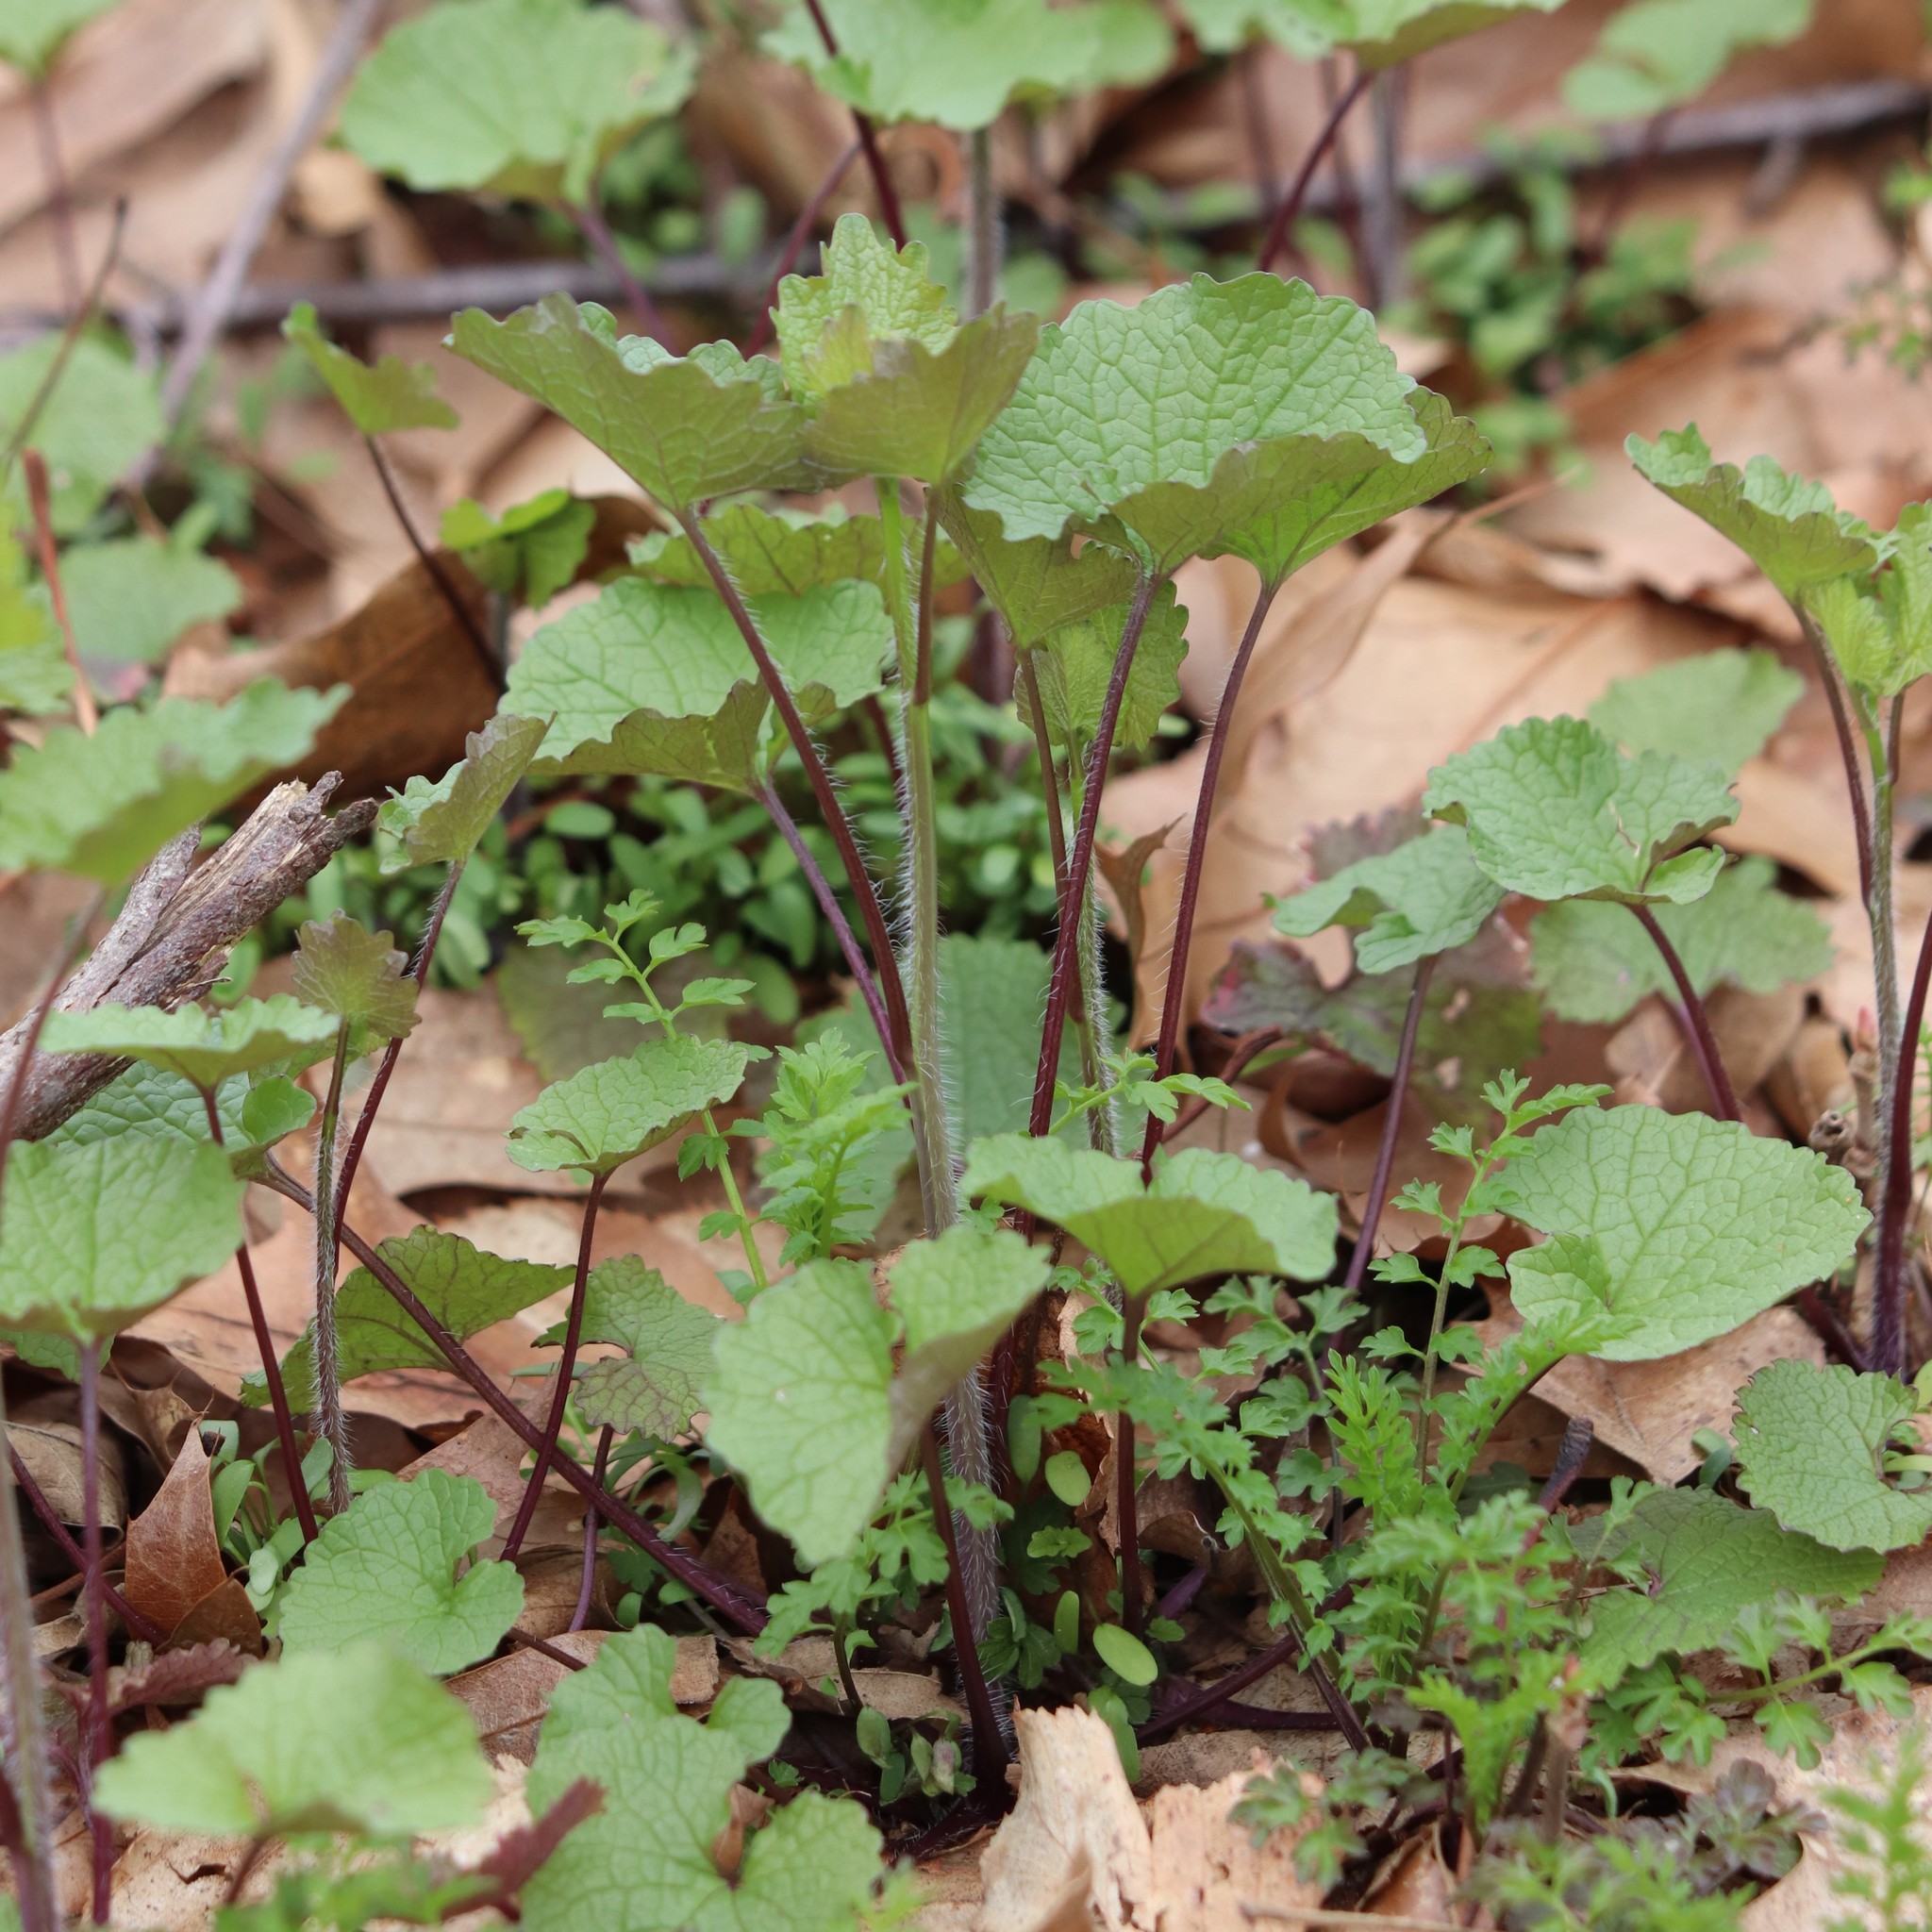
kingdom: Plantae
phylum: Tracheophyta
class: Magnoliopsida
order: Brassicales
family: Brassicaceae
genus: Alliaria
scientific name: Alliaria petiolata
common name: Garlic mustard
